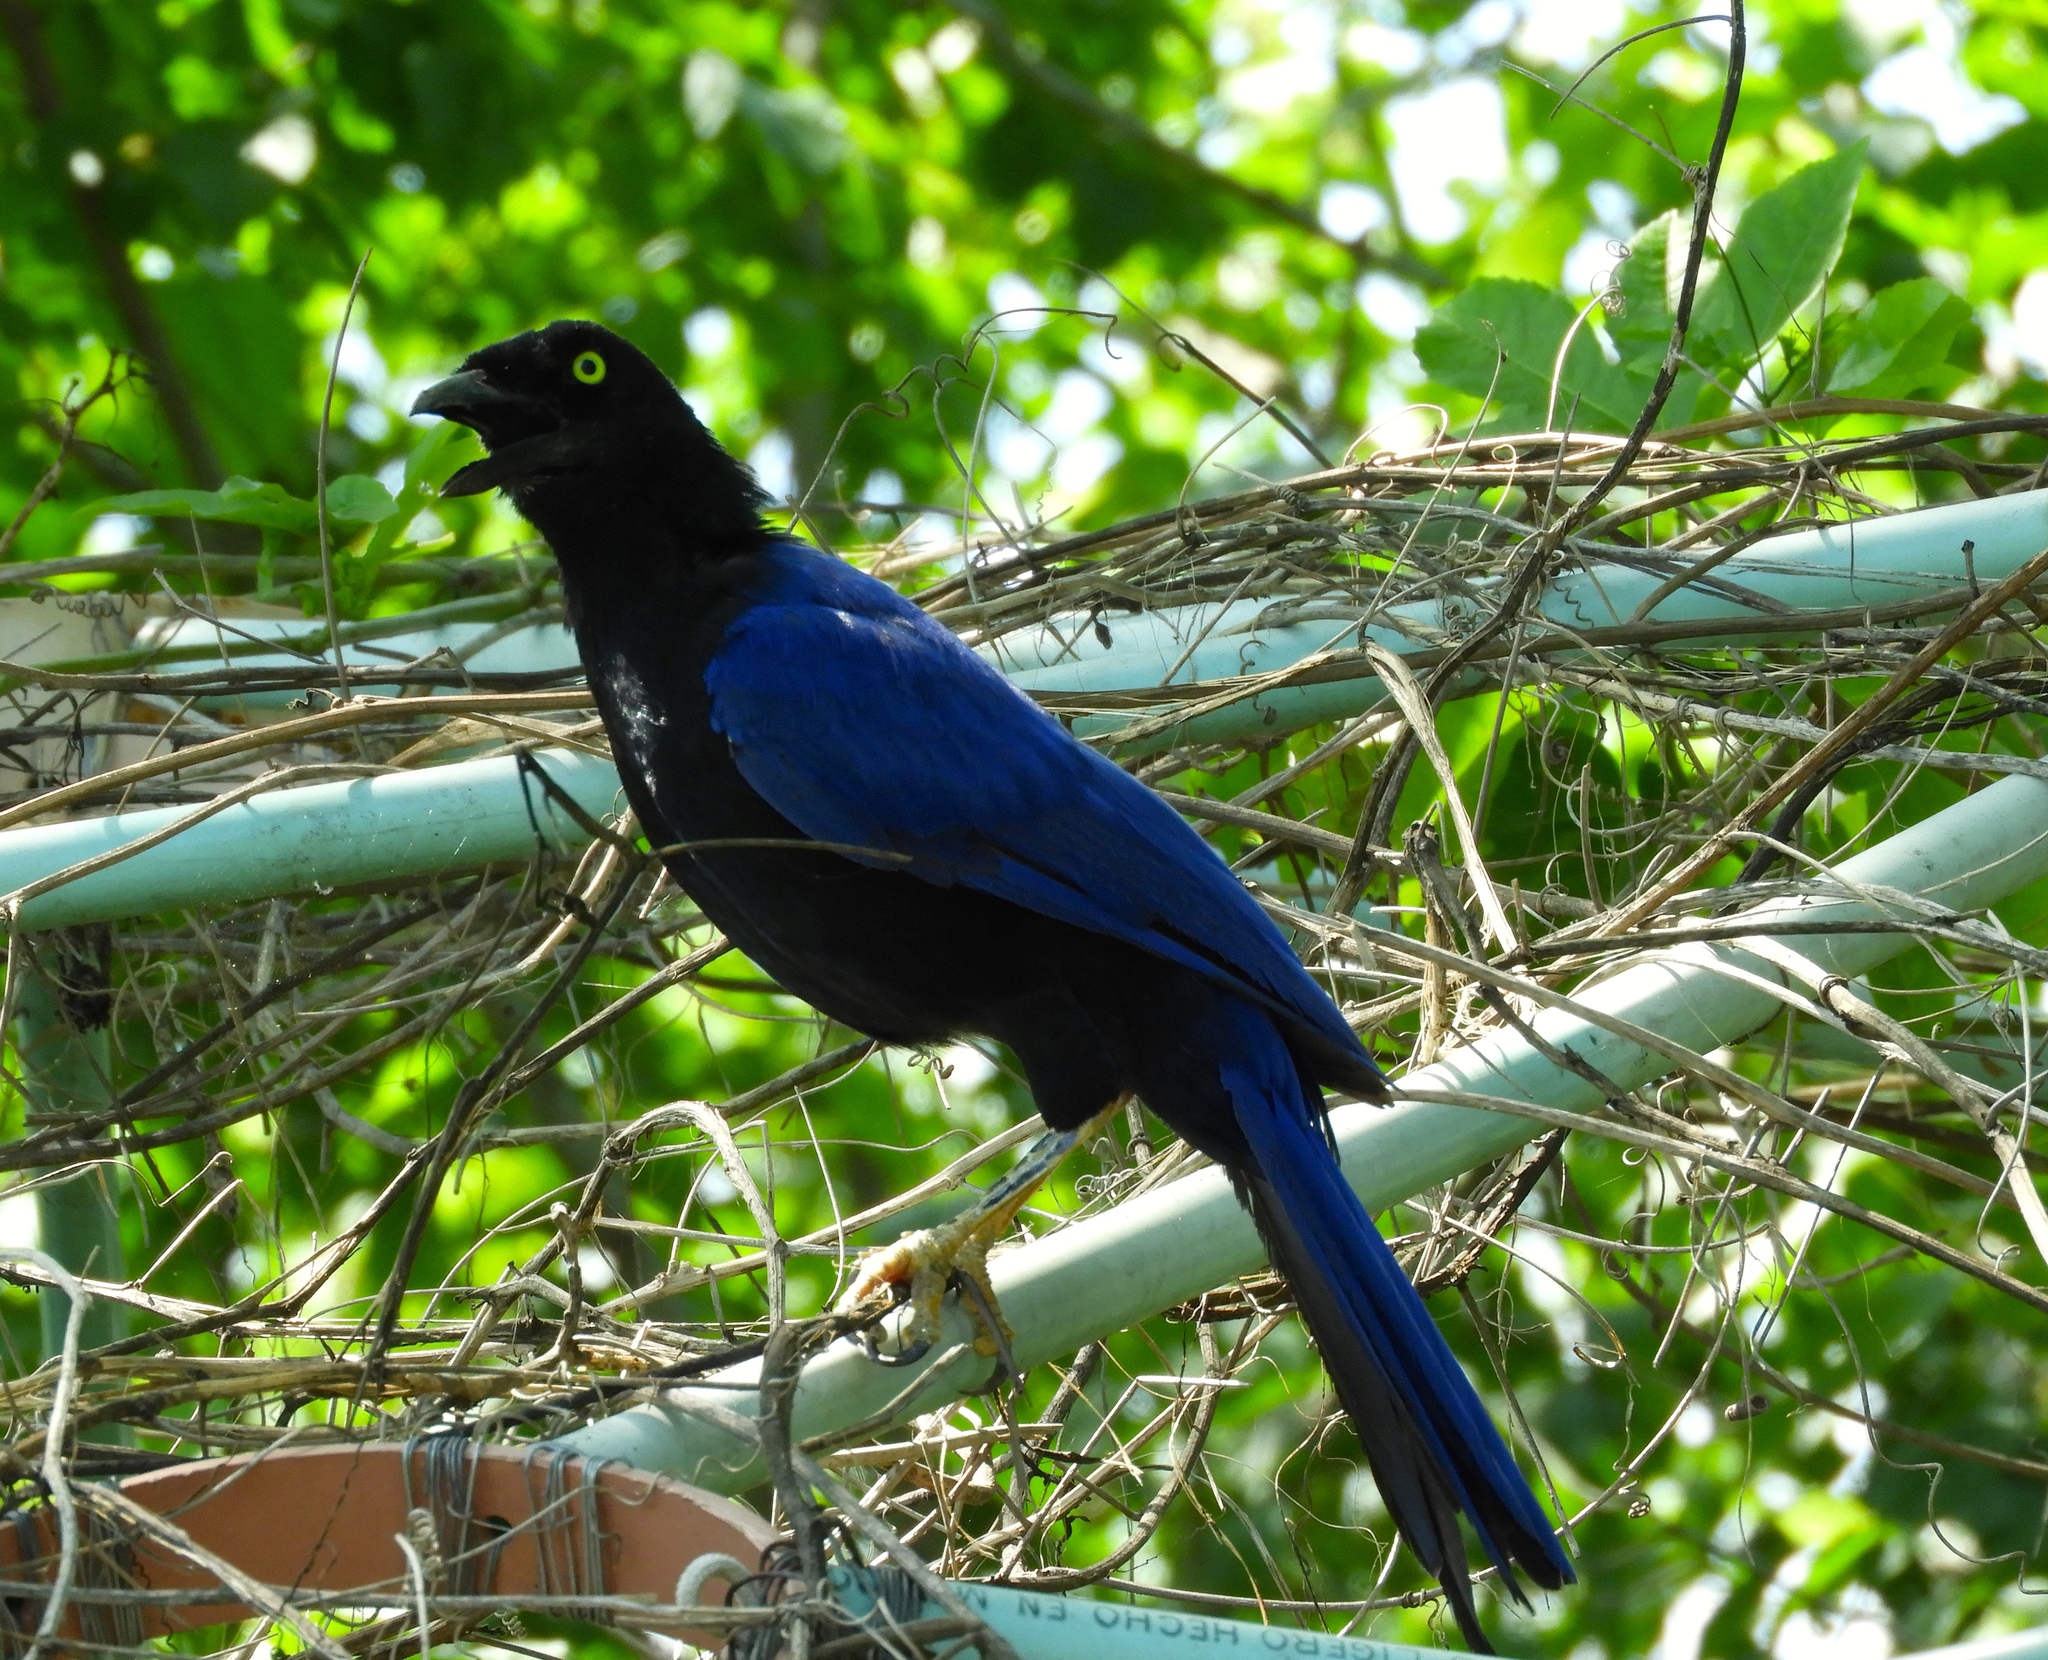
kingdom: Animalia
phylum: Chordata
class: Aves
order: Passeriformes
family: Corvidae
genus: Cyanocorax
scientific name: Cyanocorax beecheii
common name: Purplish-backed jay
